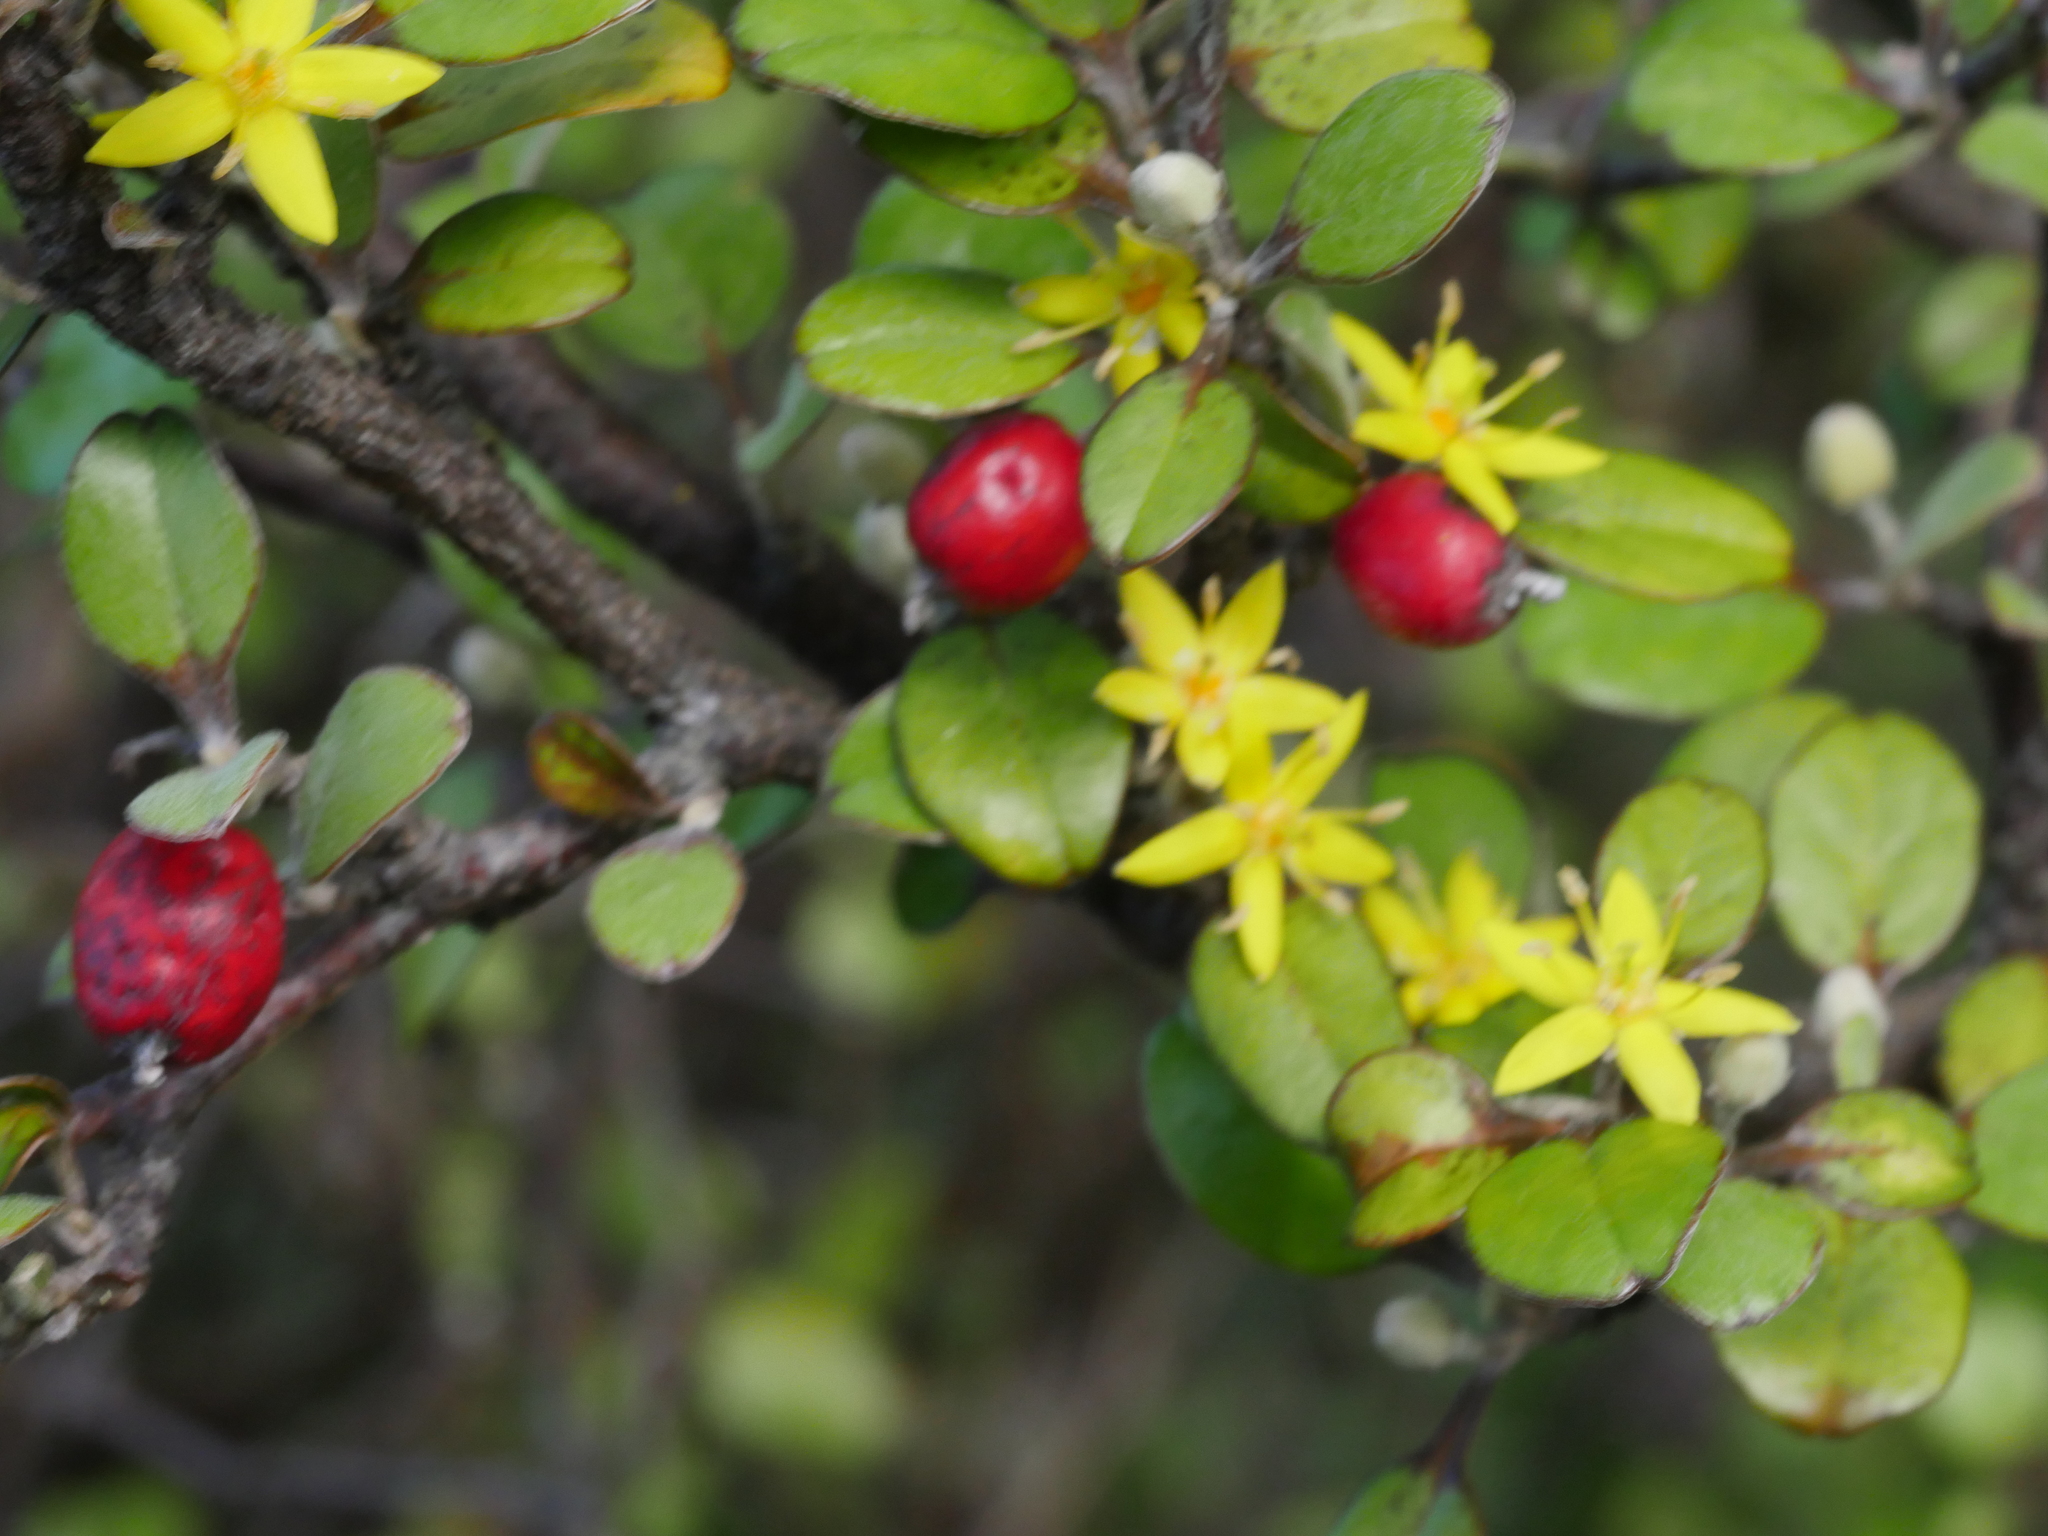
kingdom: Plantae
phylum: Tracheophyta
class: Magnoliopsida
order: Asterales
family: Argophyllaceae
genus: Corokia
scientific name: Corokia cotoneaster
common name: Wire nettingbush
